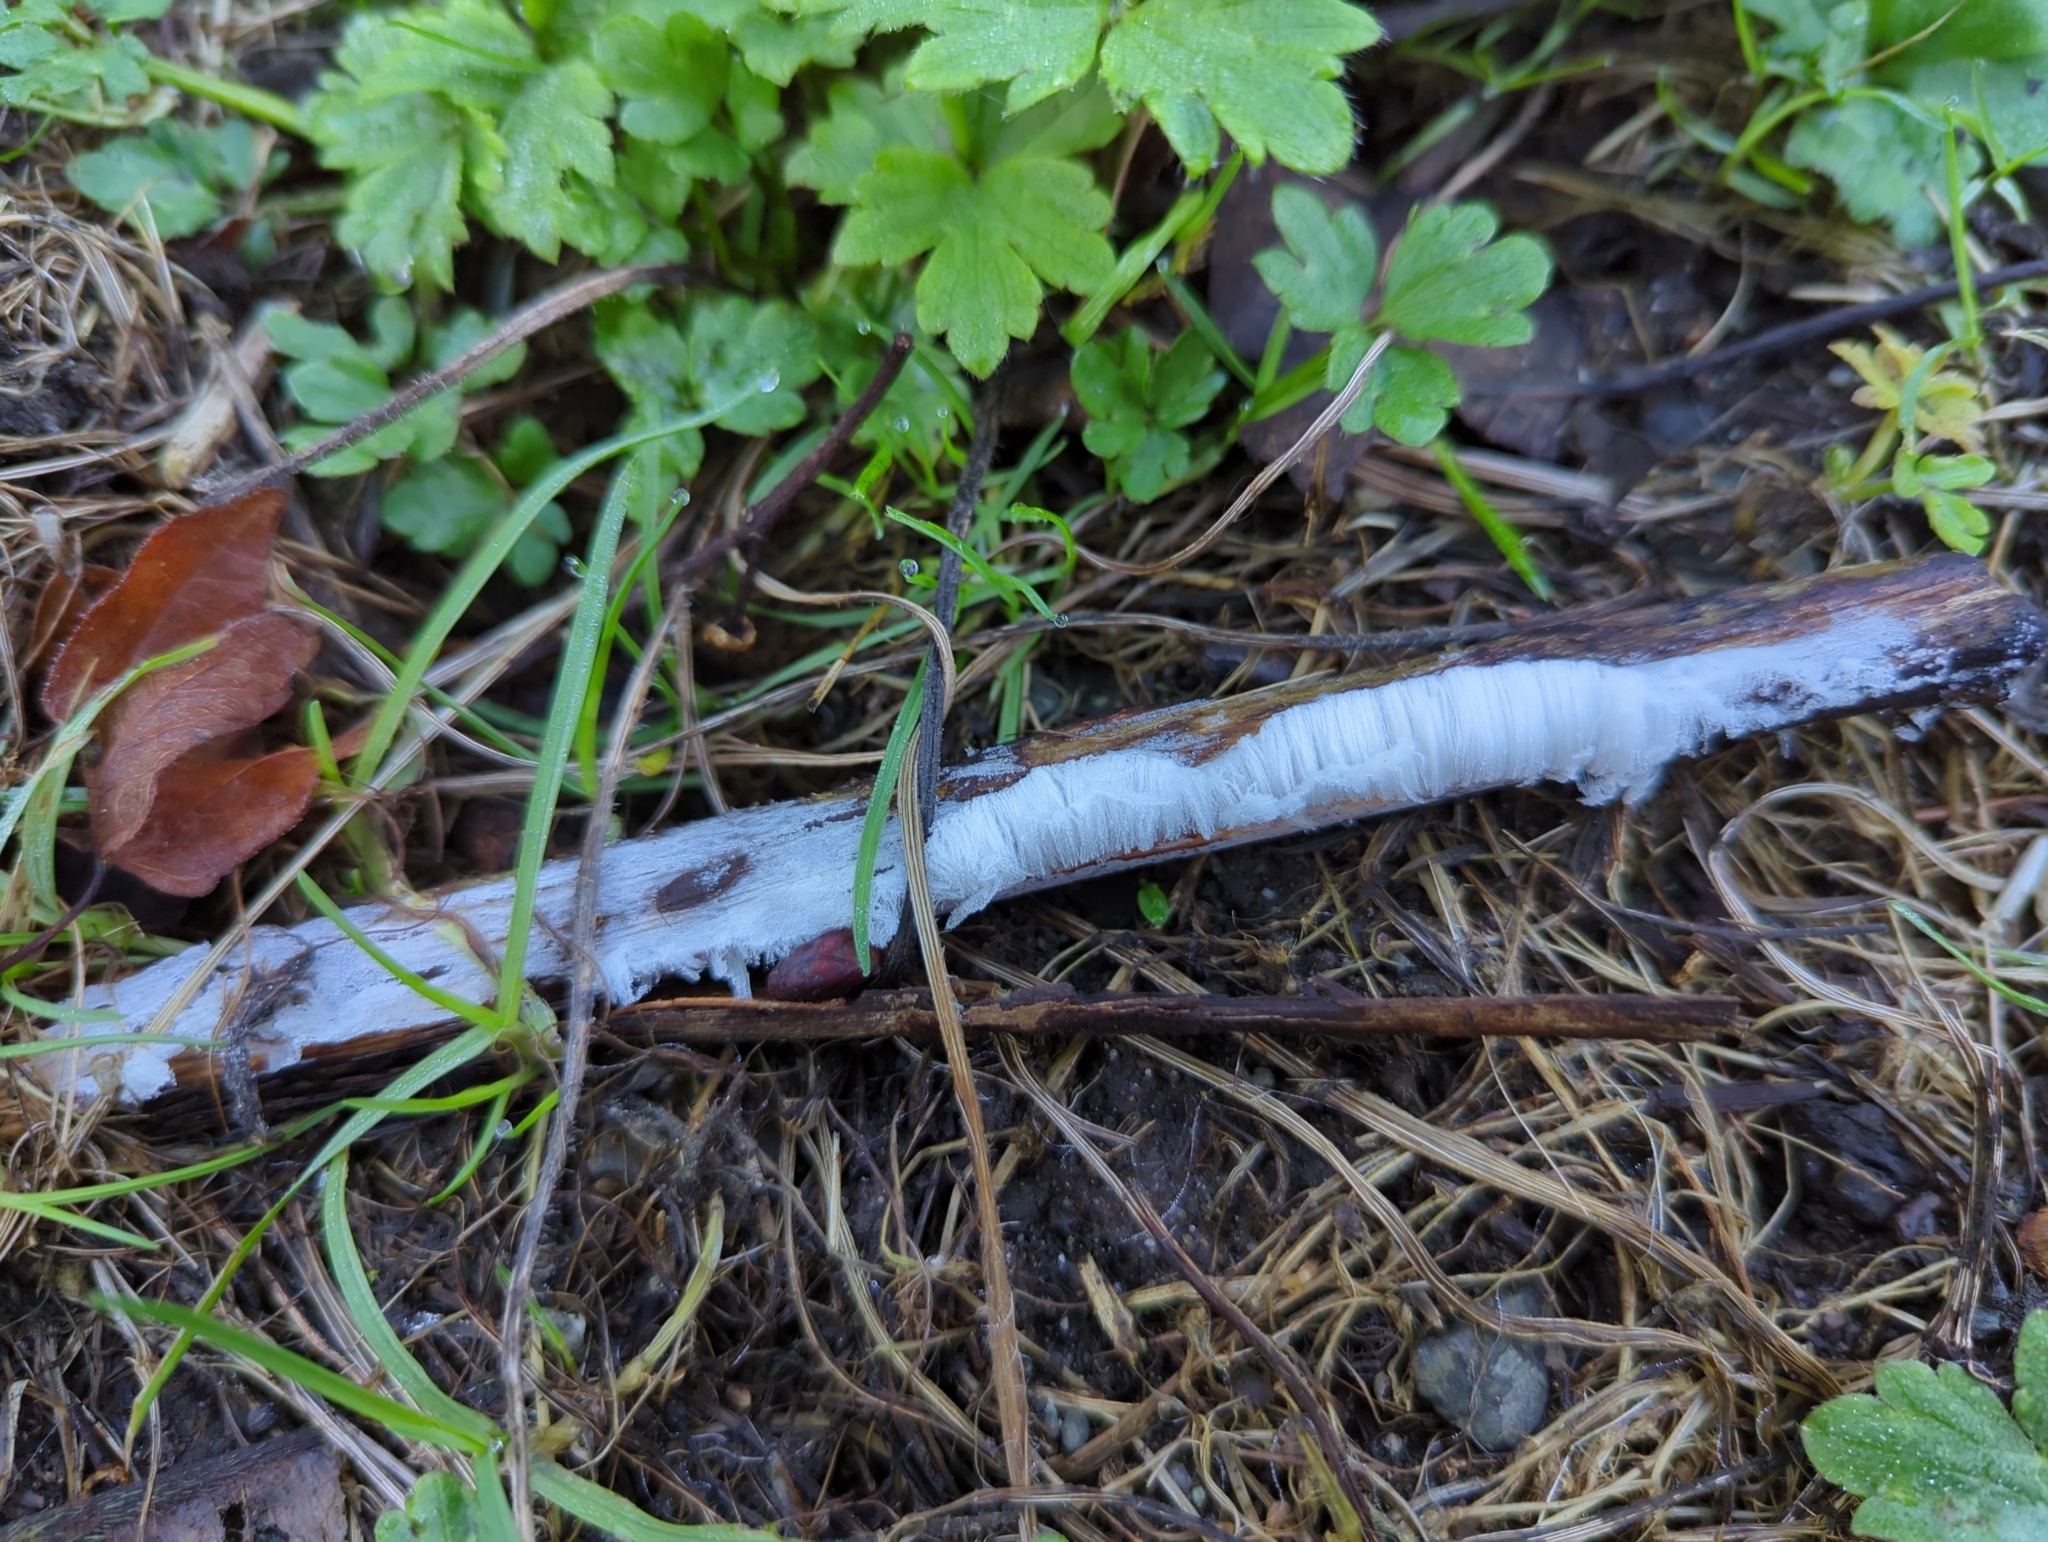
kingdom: Fungi
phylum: Basidiomycota
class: Agaricomycetes
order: Auriculariales
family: Auriculariaceae
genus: Exidiopsis
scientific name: Exidiopsis effusa
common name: Hair ice crust
